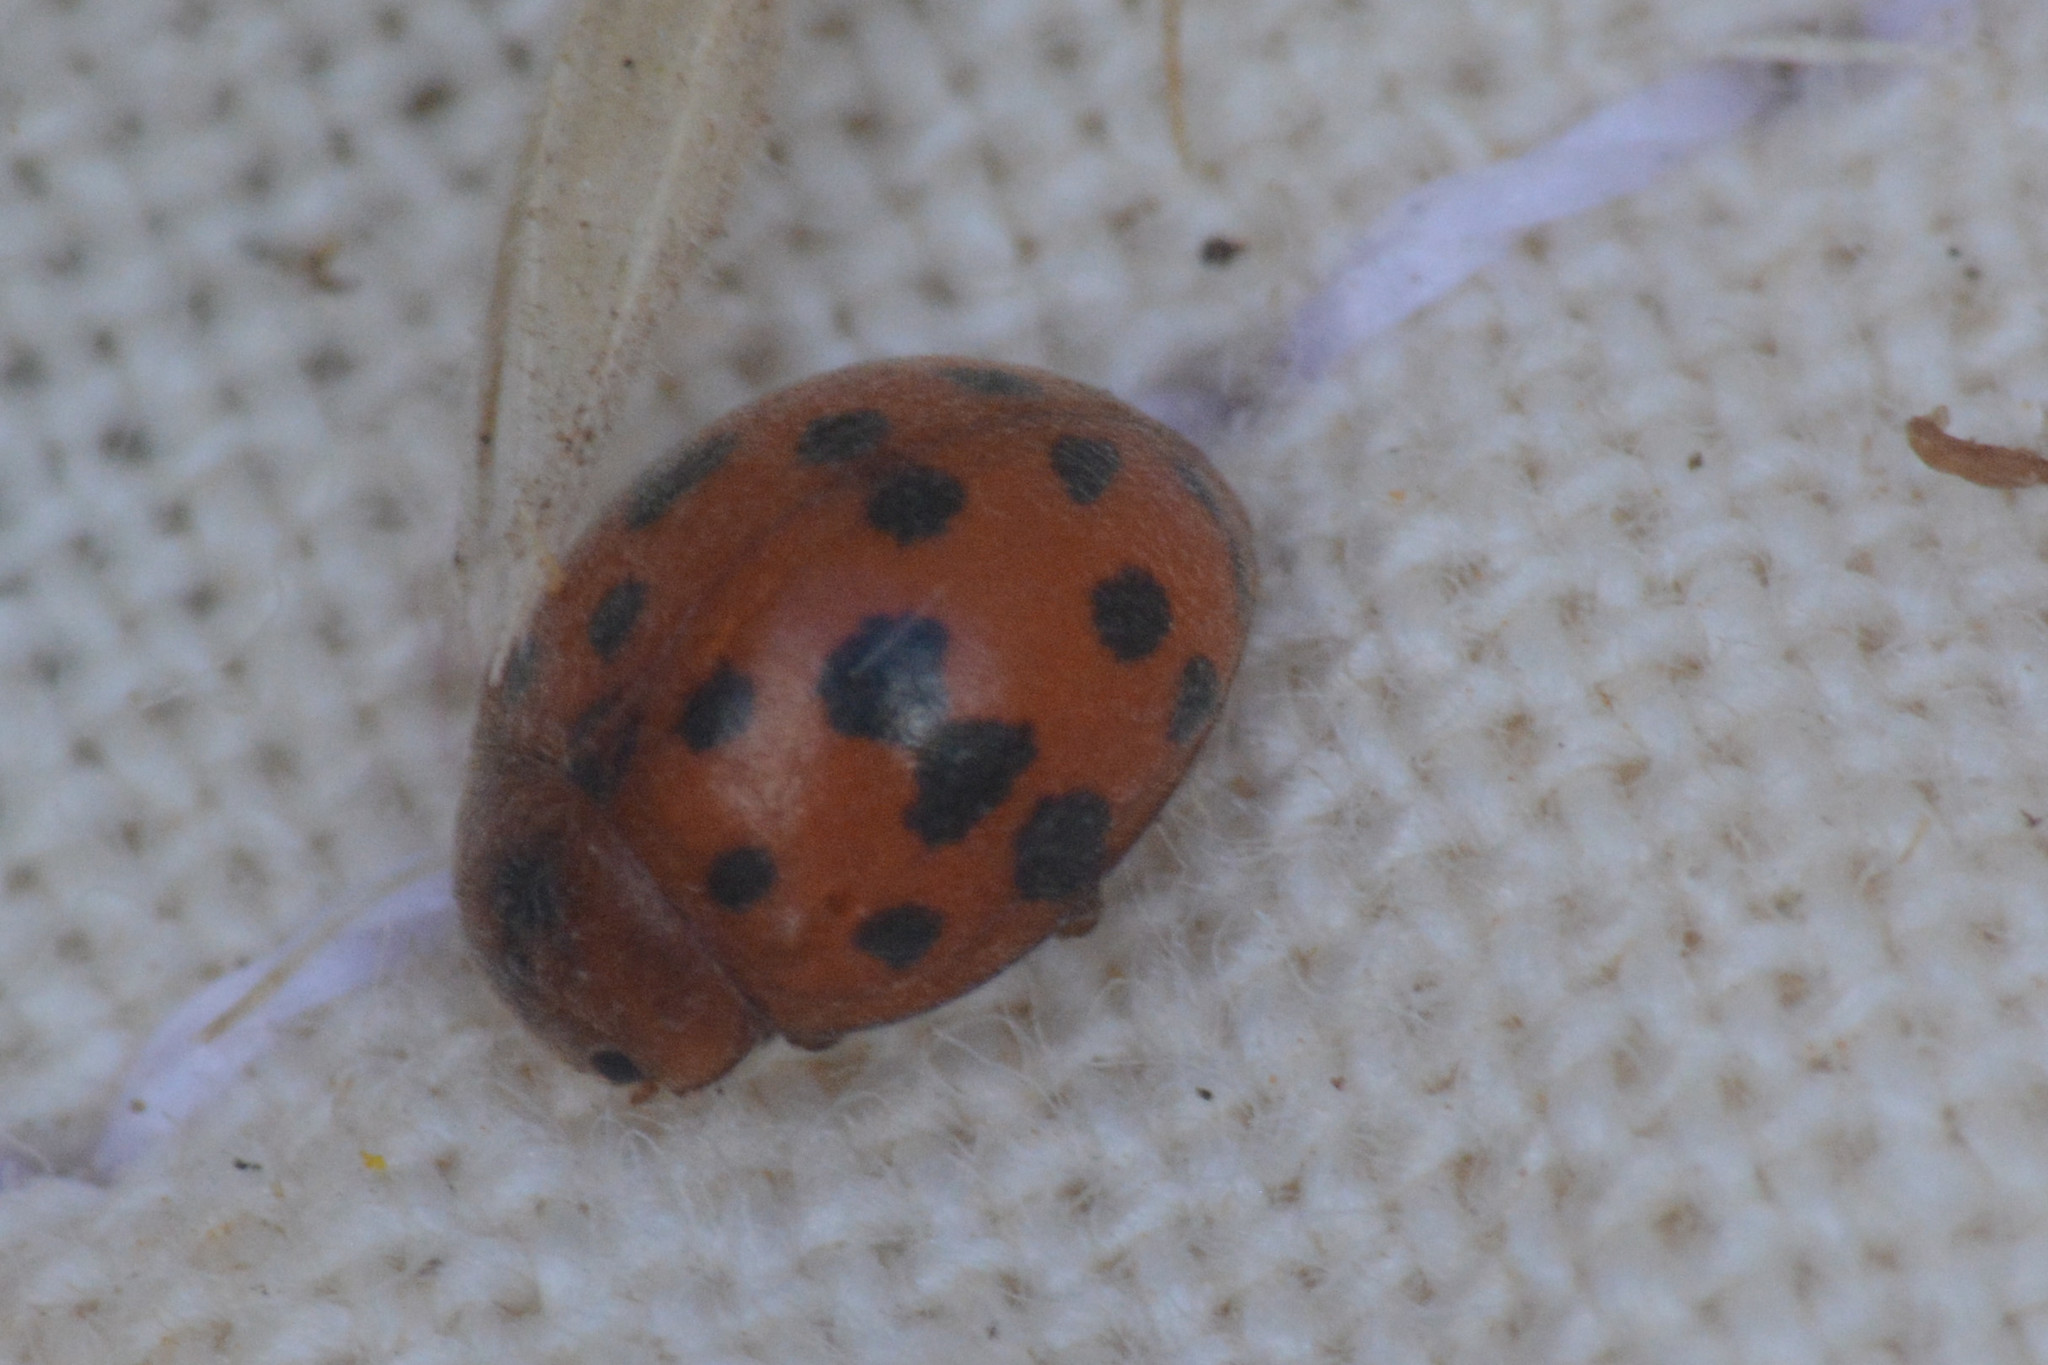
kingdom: Animalia
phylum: Arthropoda
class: Insecta
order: Coleoptera
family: Coccinellidae
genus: Subcoccinella
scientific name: Subcoccinella vigintiquatuorpunctata
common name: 24-spot ladybird
